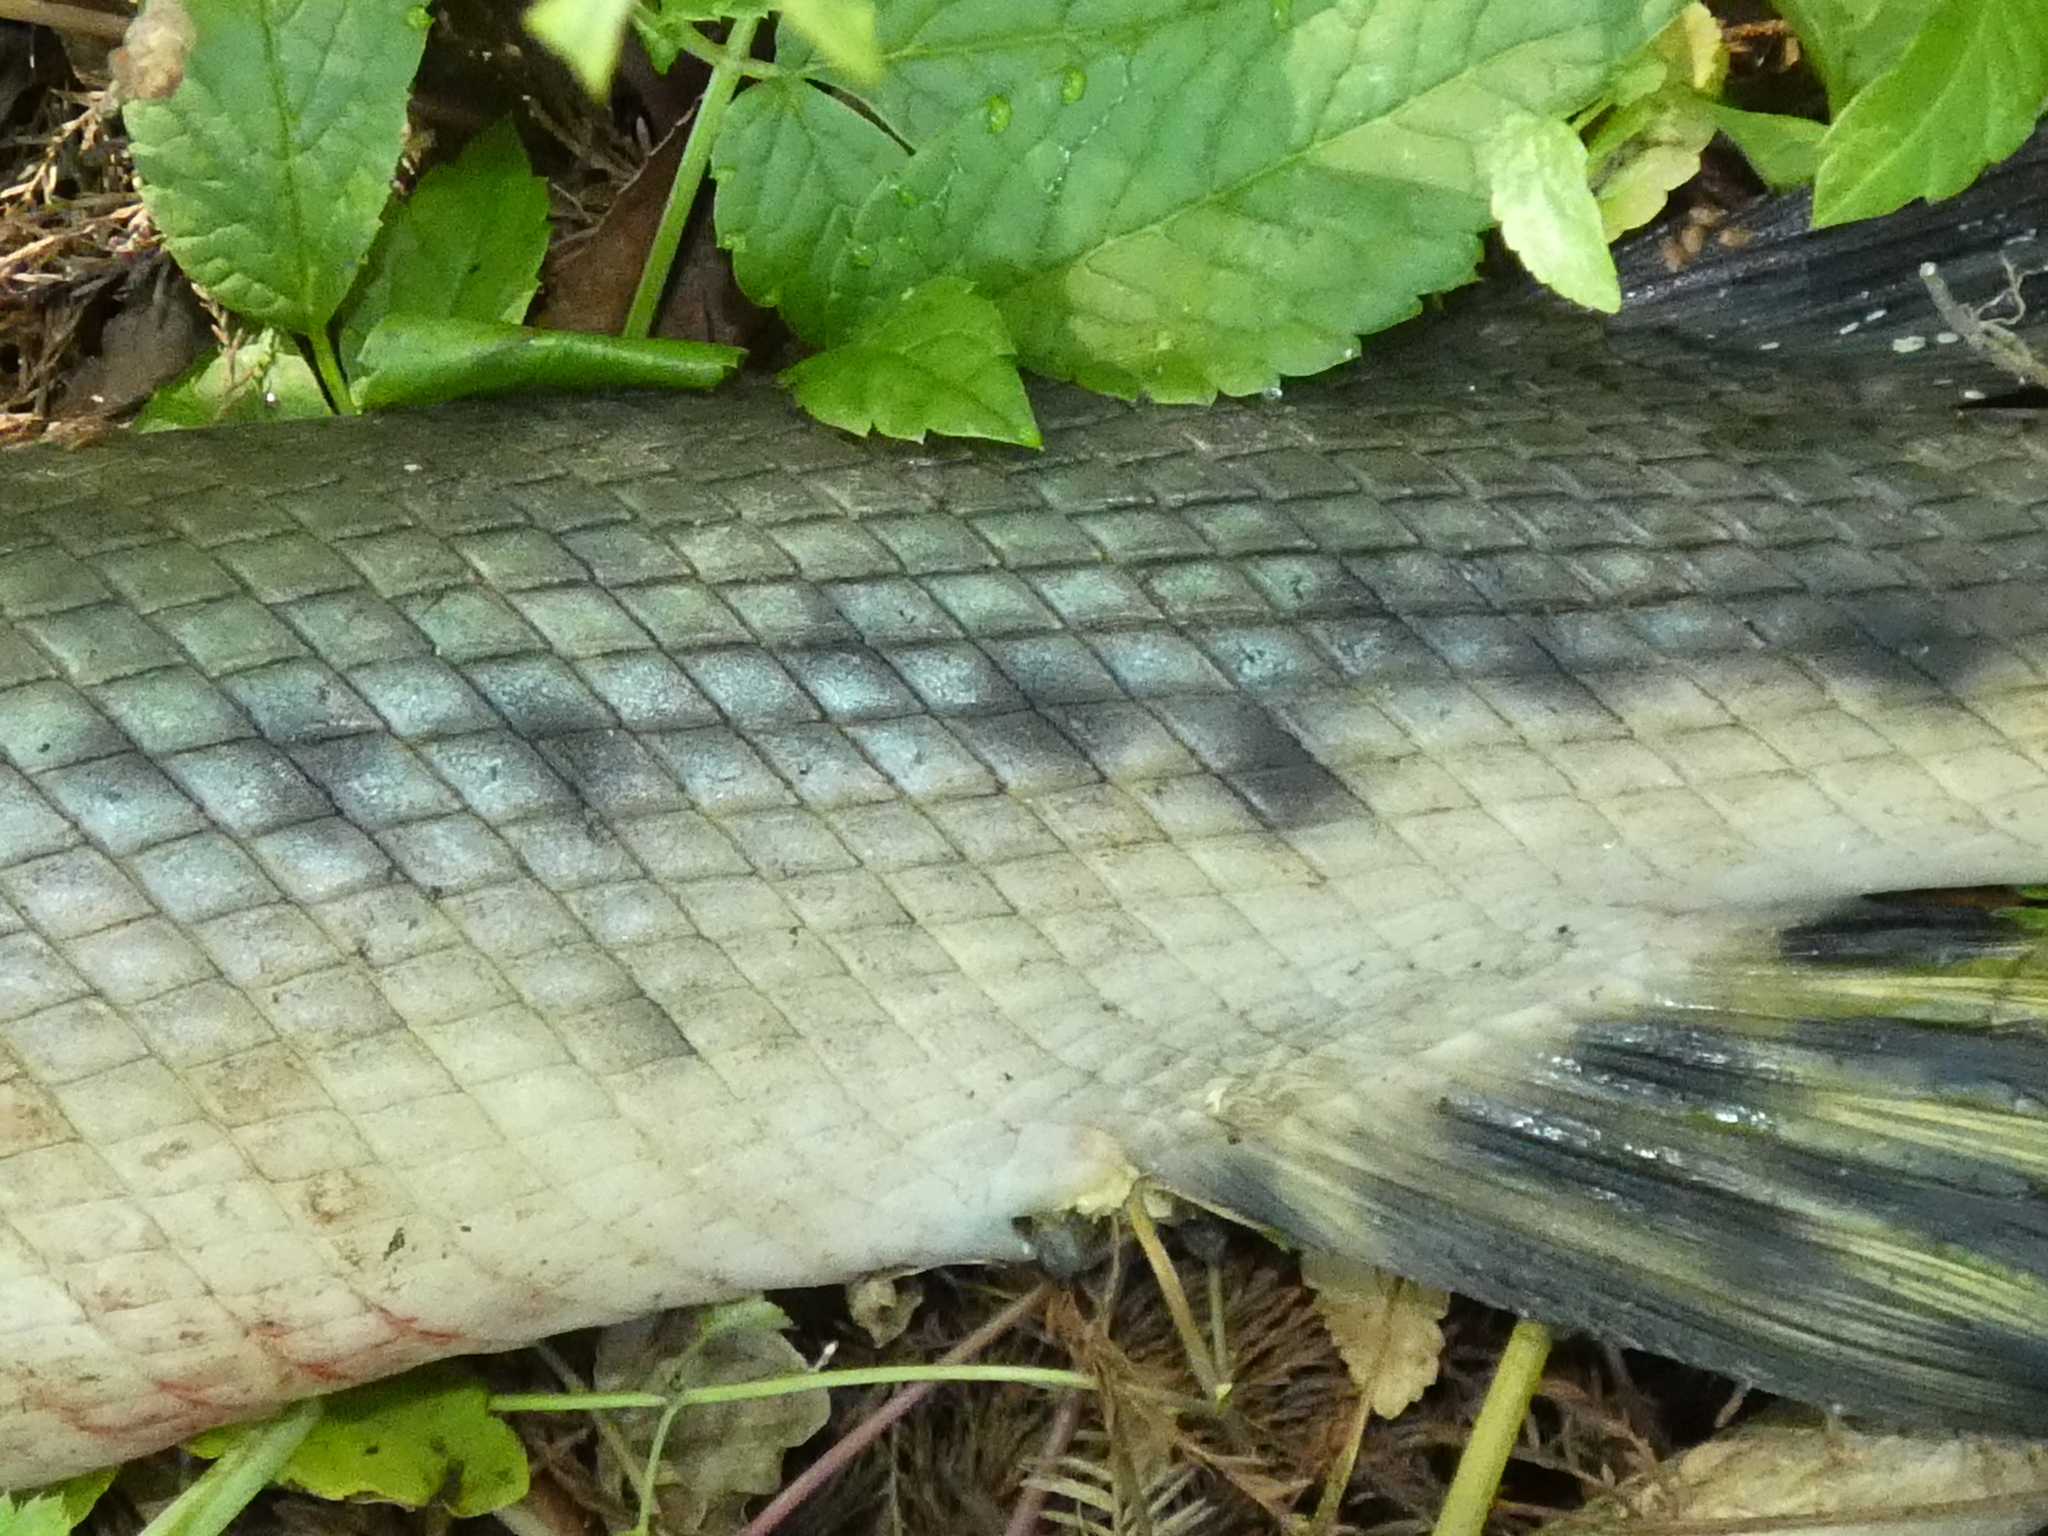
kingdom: Animalia
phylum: Chordata
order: Lepisosteiformes
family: Lepisosteidae
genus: Lepisosteus
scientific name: Lepisosteus osseus
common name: Longnose gar
